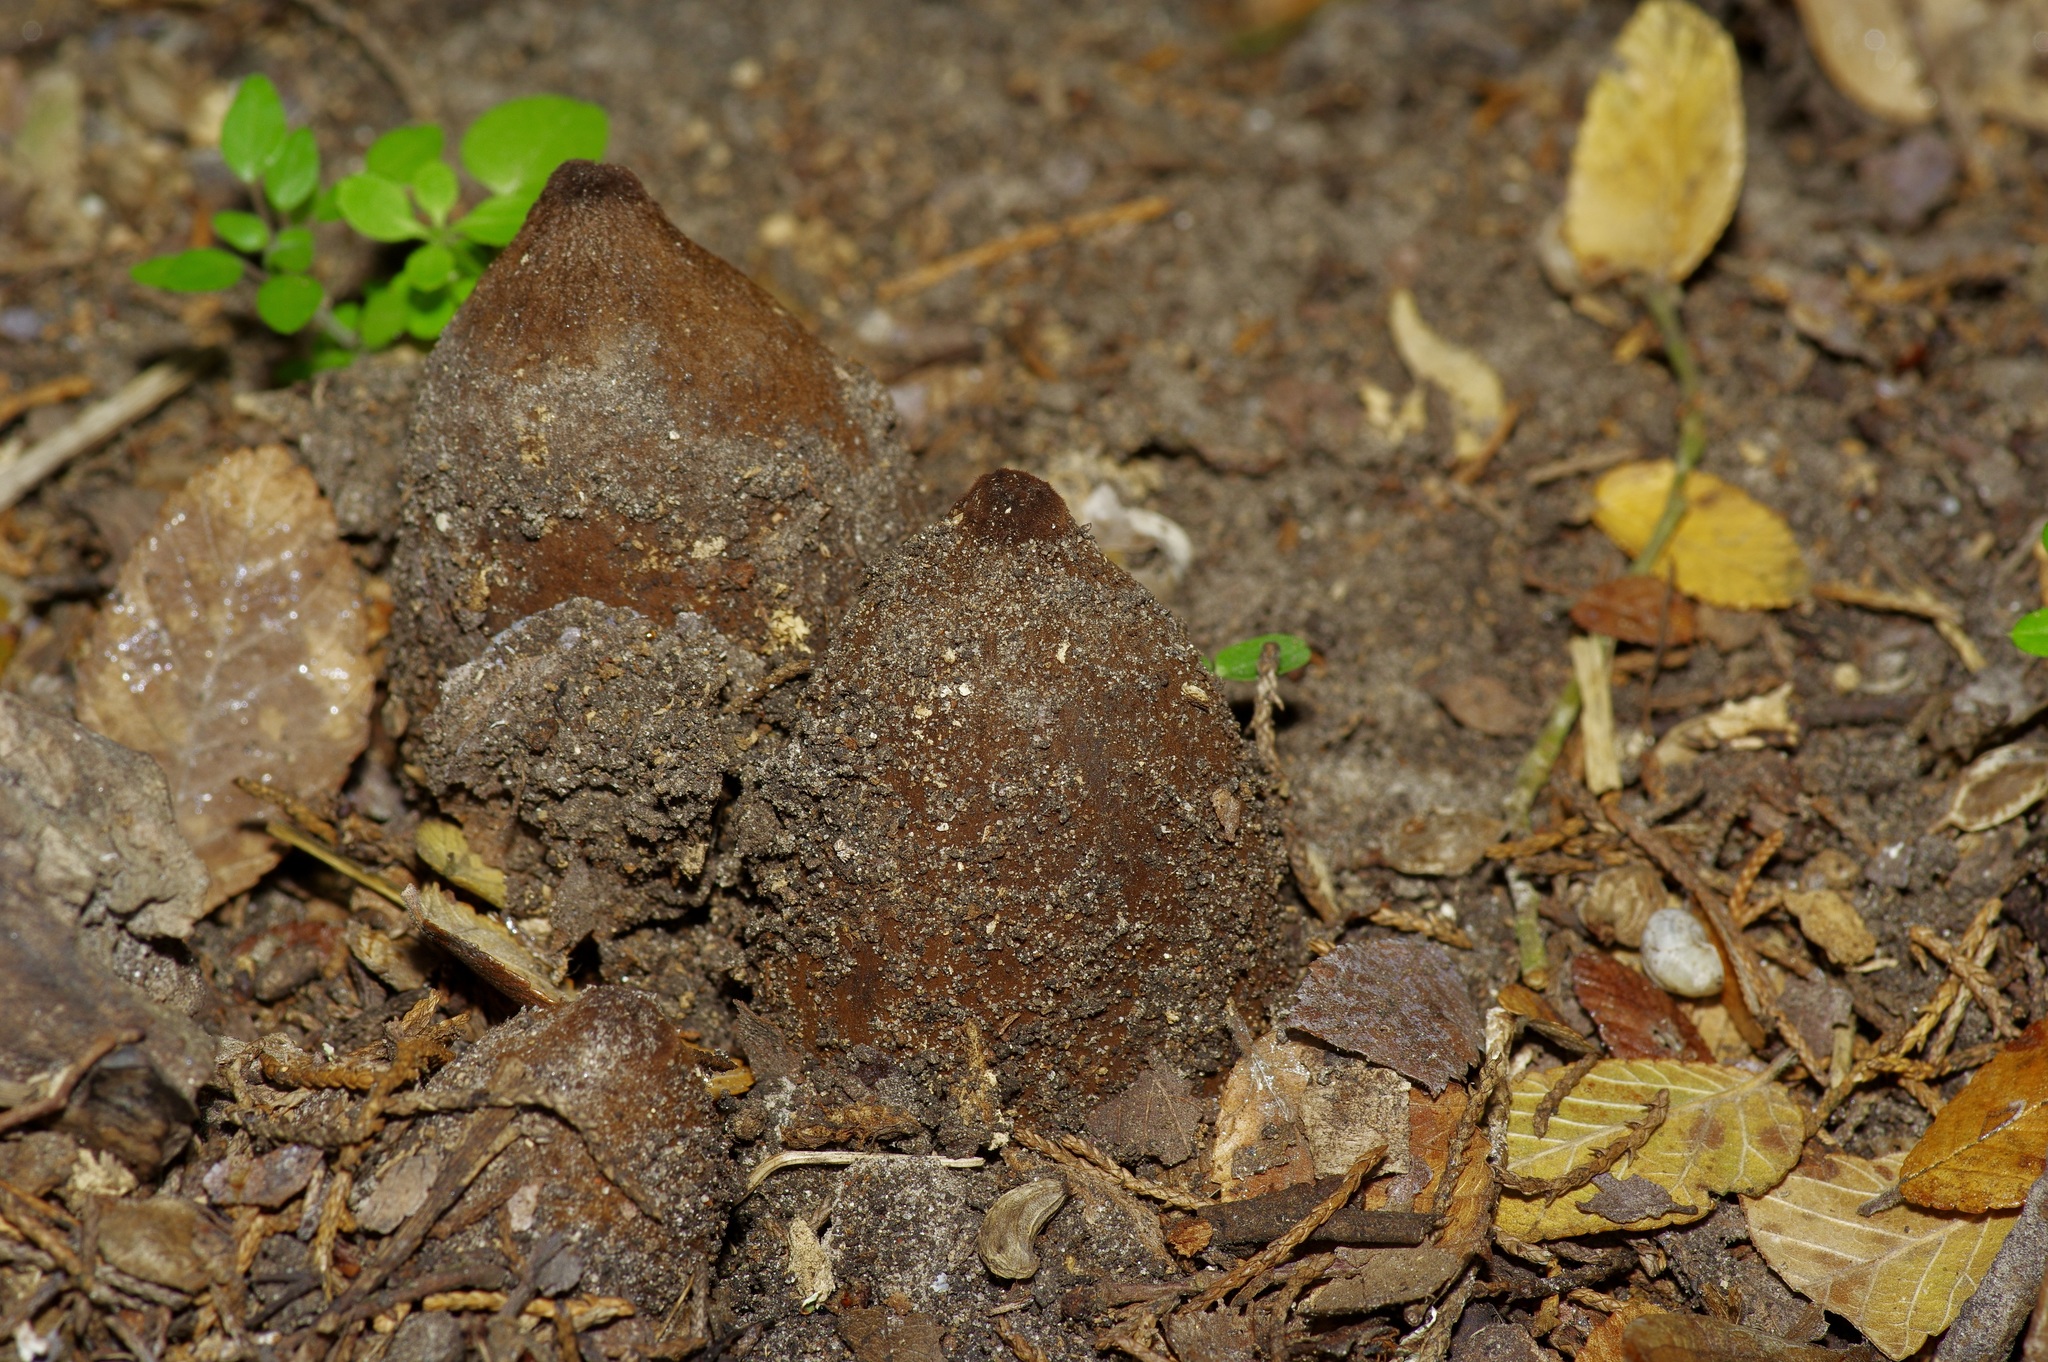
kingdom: Fungi
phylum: Ascomycota
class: Pezizomycetes
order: Pezizales
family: Chorioactidaceae
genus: Chorioactis
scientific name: Chorioactis geaster
